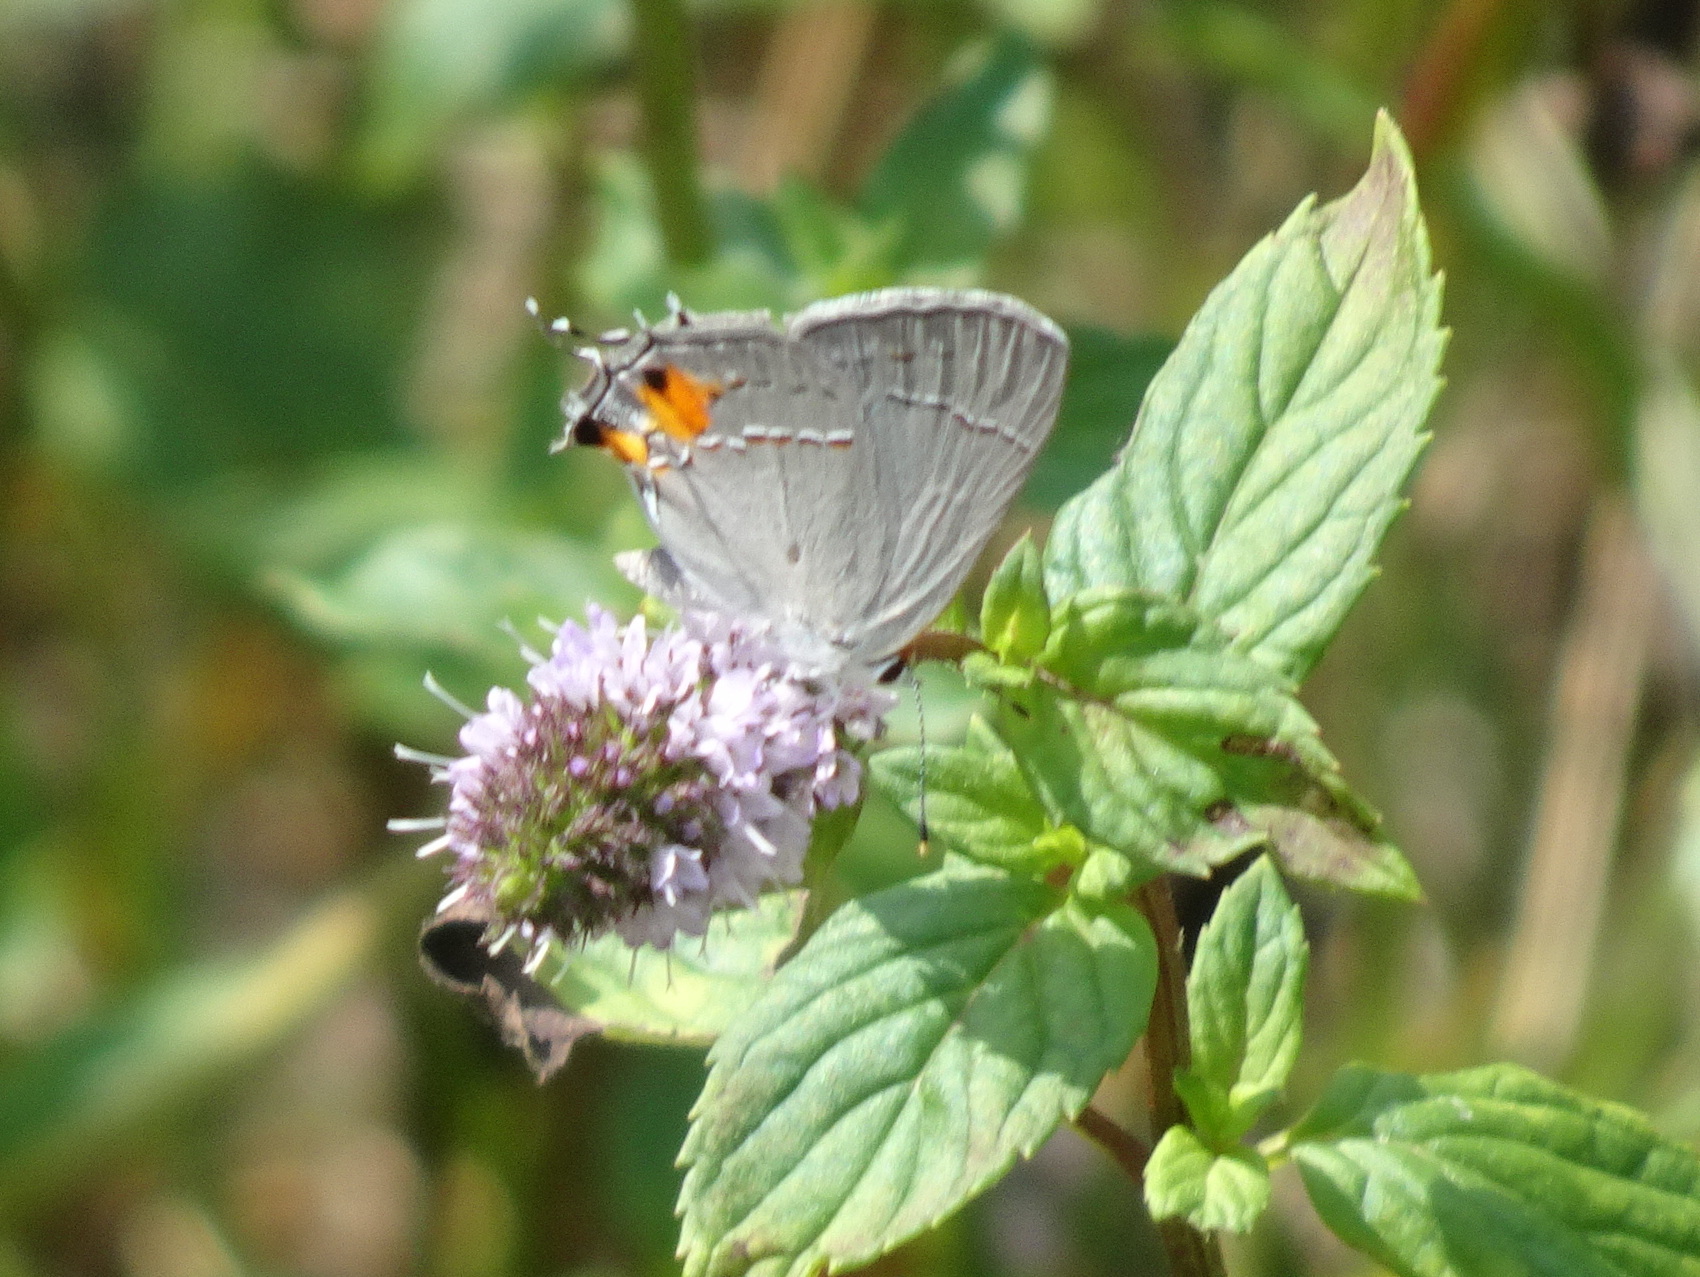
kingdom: Animalia
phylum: Arthropoda
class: Insecta
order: Lepidoptera
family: Lycaenidae
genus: Strymon
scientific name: Strymon melinus
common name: Gray hairstreak
